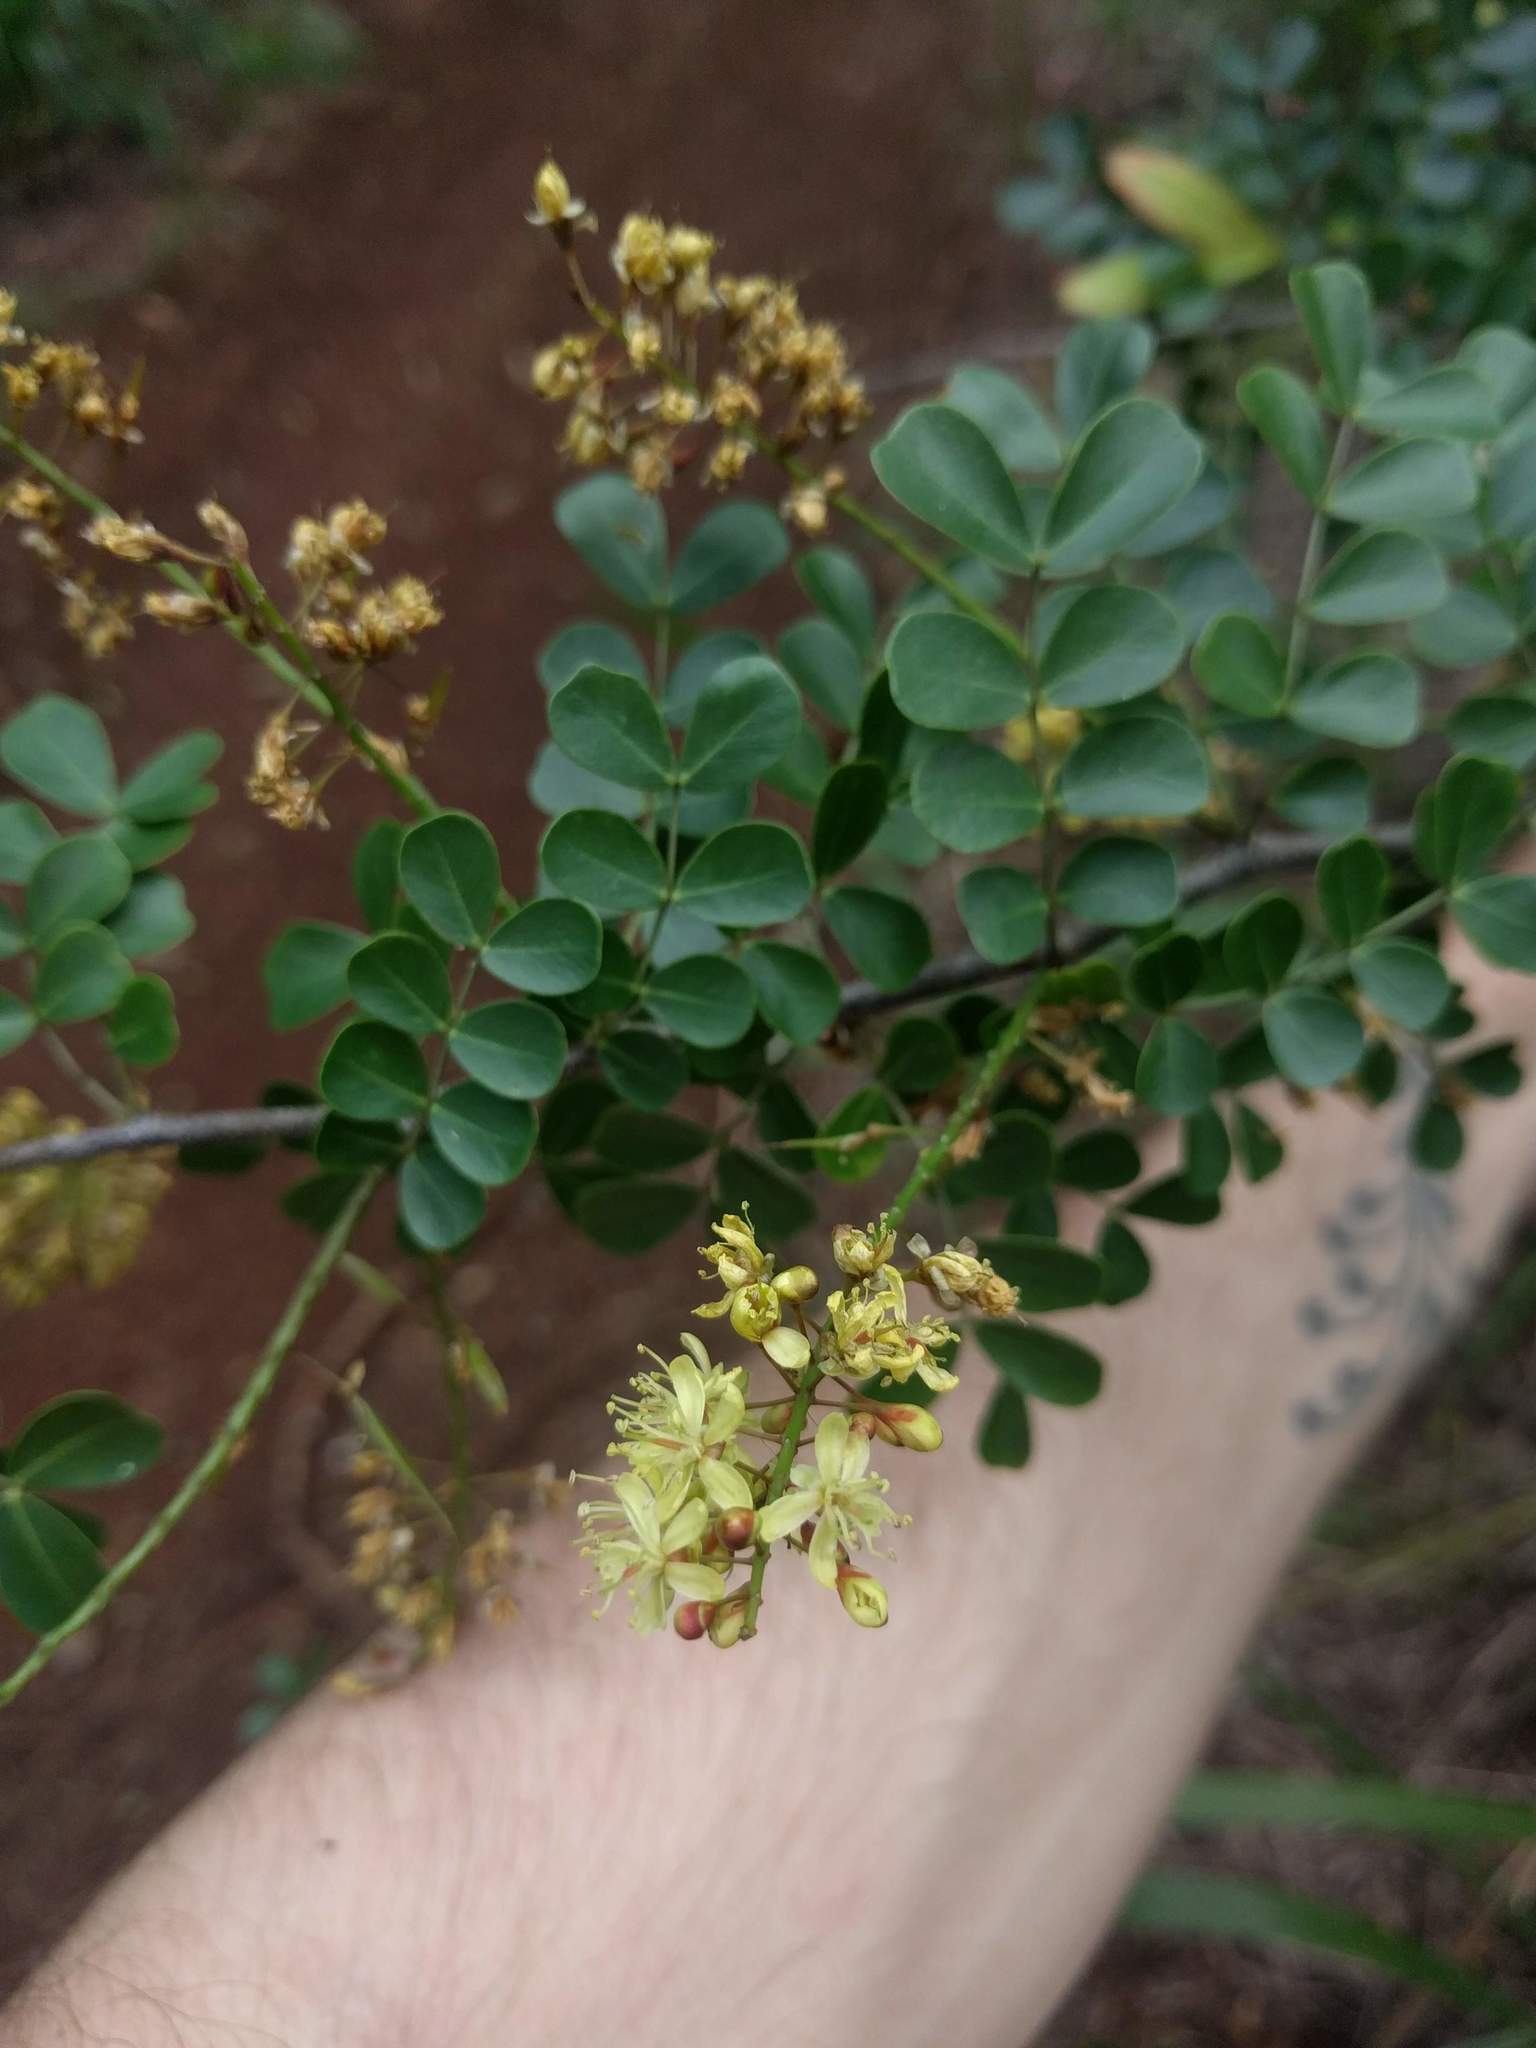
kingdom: Plantae
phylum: Tracheophyta
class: Magnoliopsida
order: Fabales
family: Fabaceae
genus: Haematoxylum
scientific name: Haematoxylum campechianum
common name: Logwood
